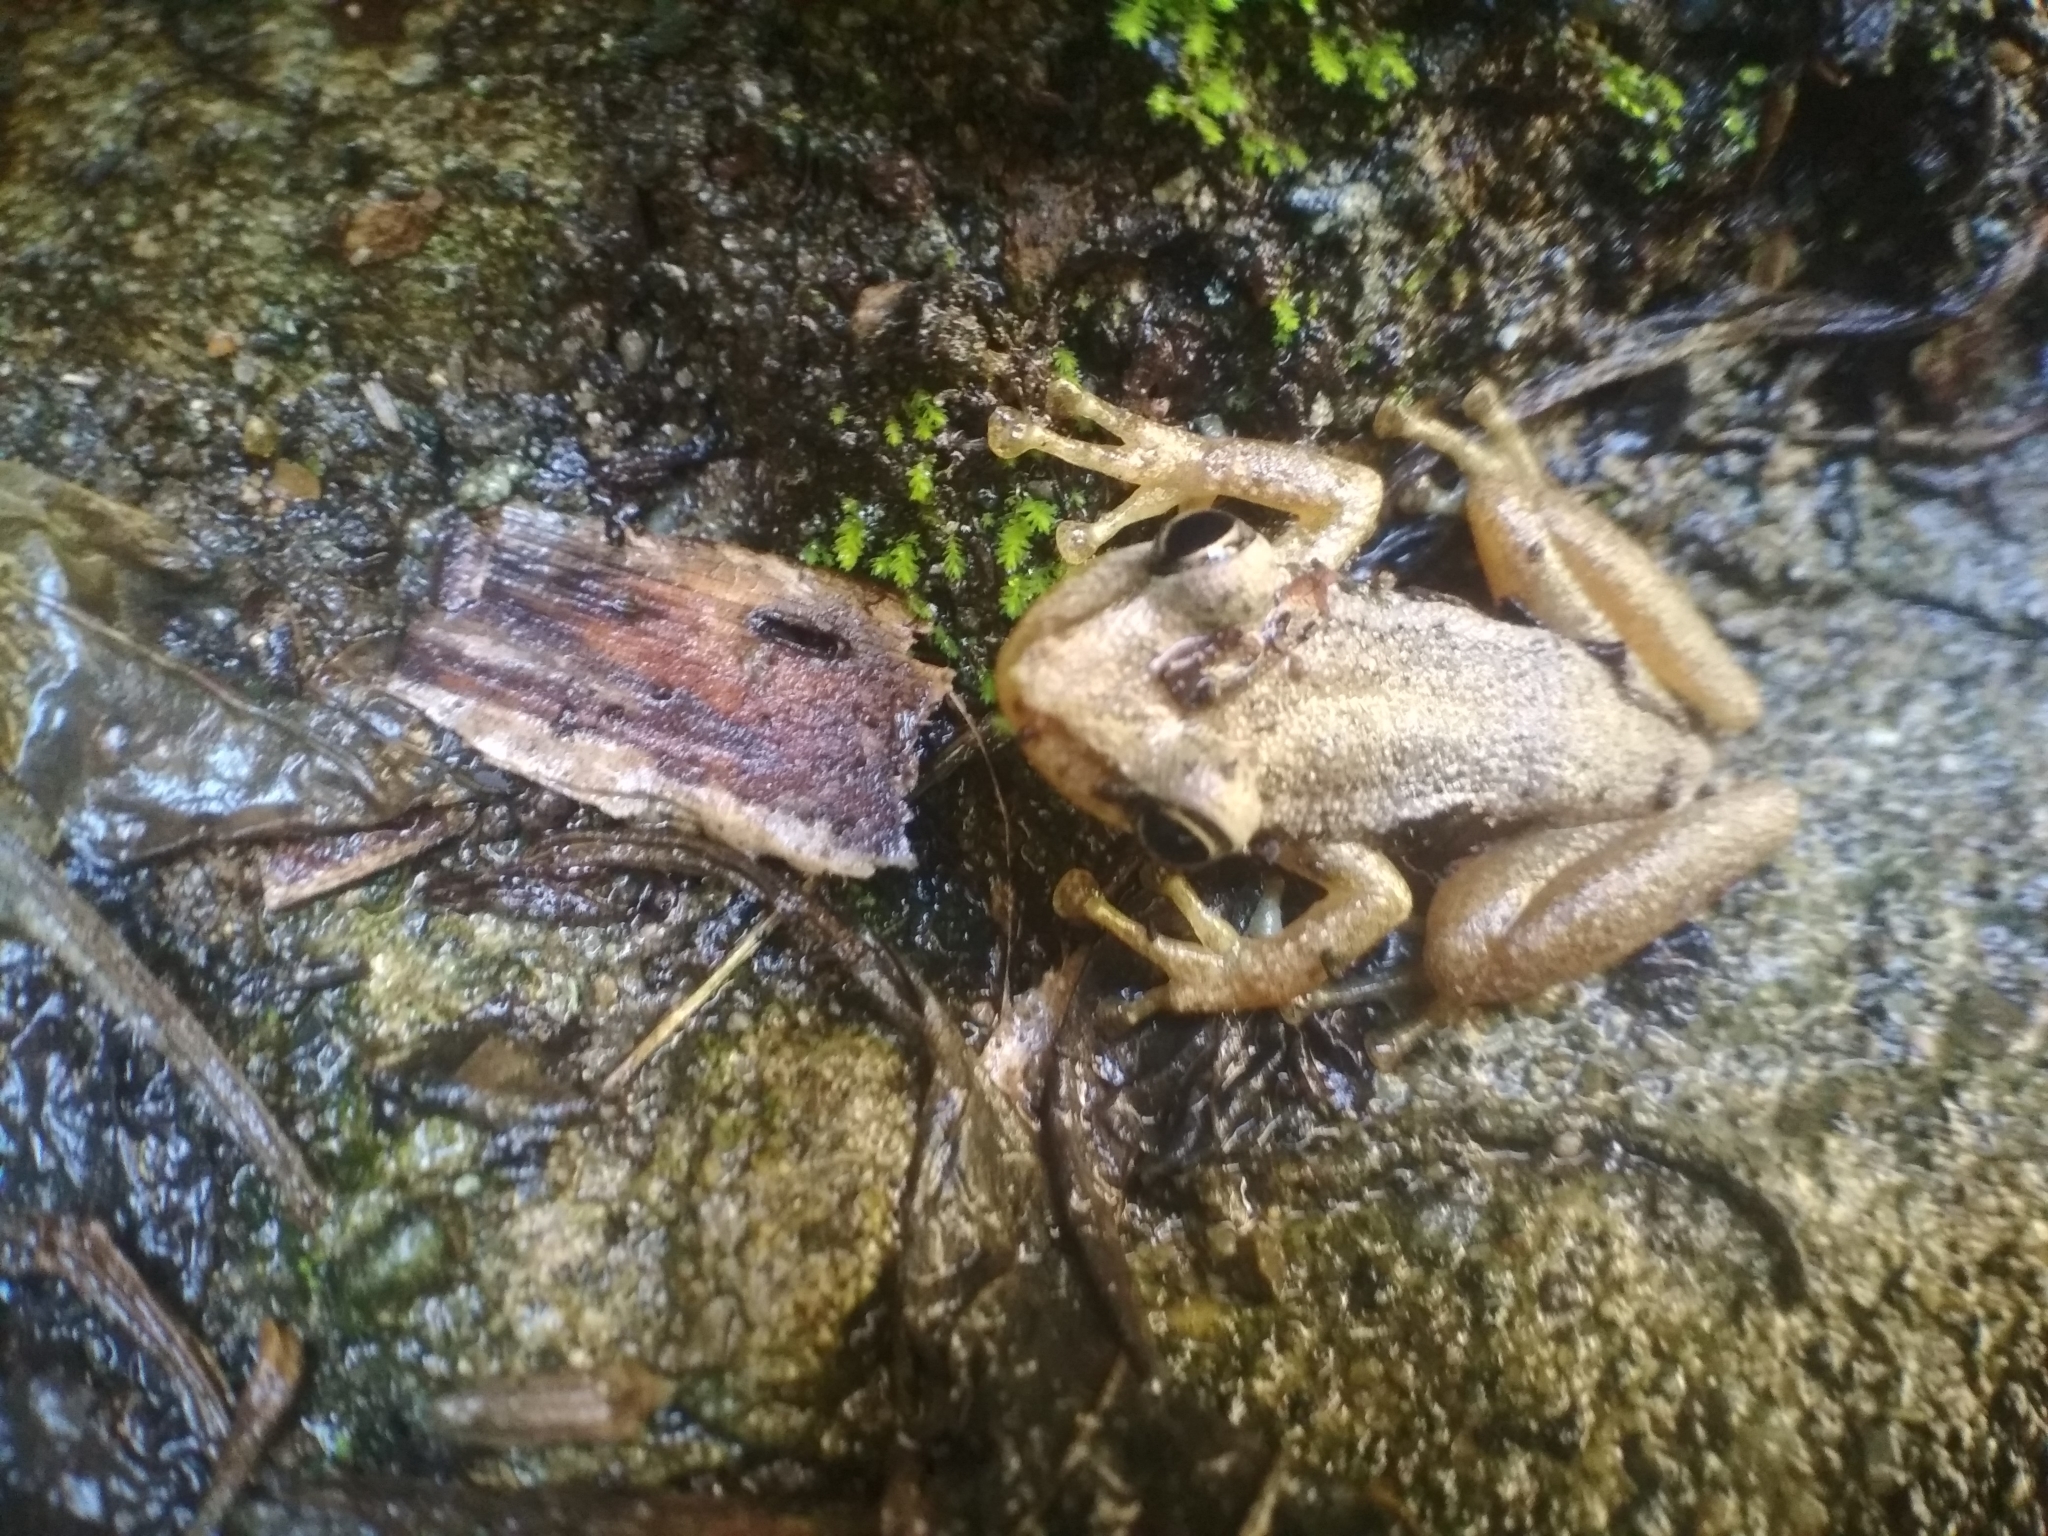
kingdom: Animalia
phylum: Chordata
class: Amphibia
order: Anura
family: Hylidae
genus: Scinax
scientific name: Scinax ruber
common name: Red snouted treefrog
